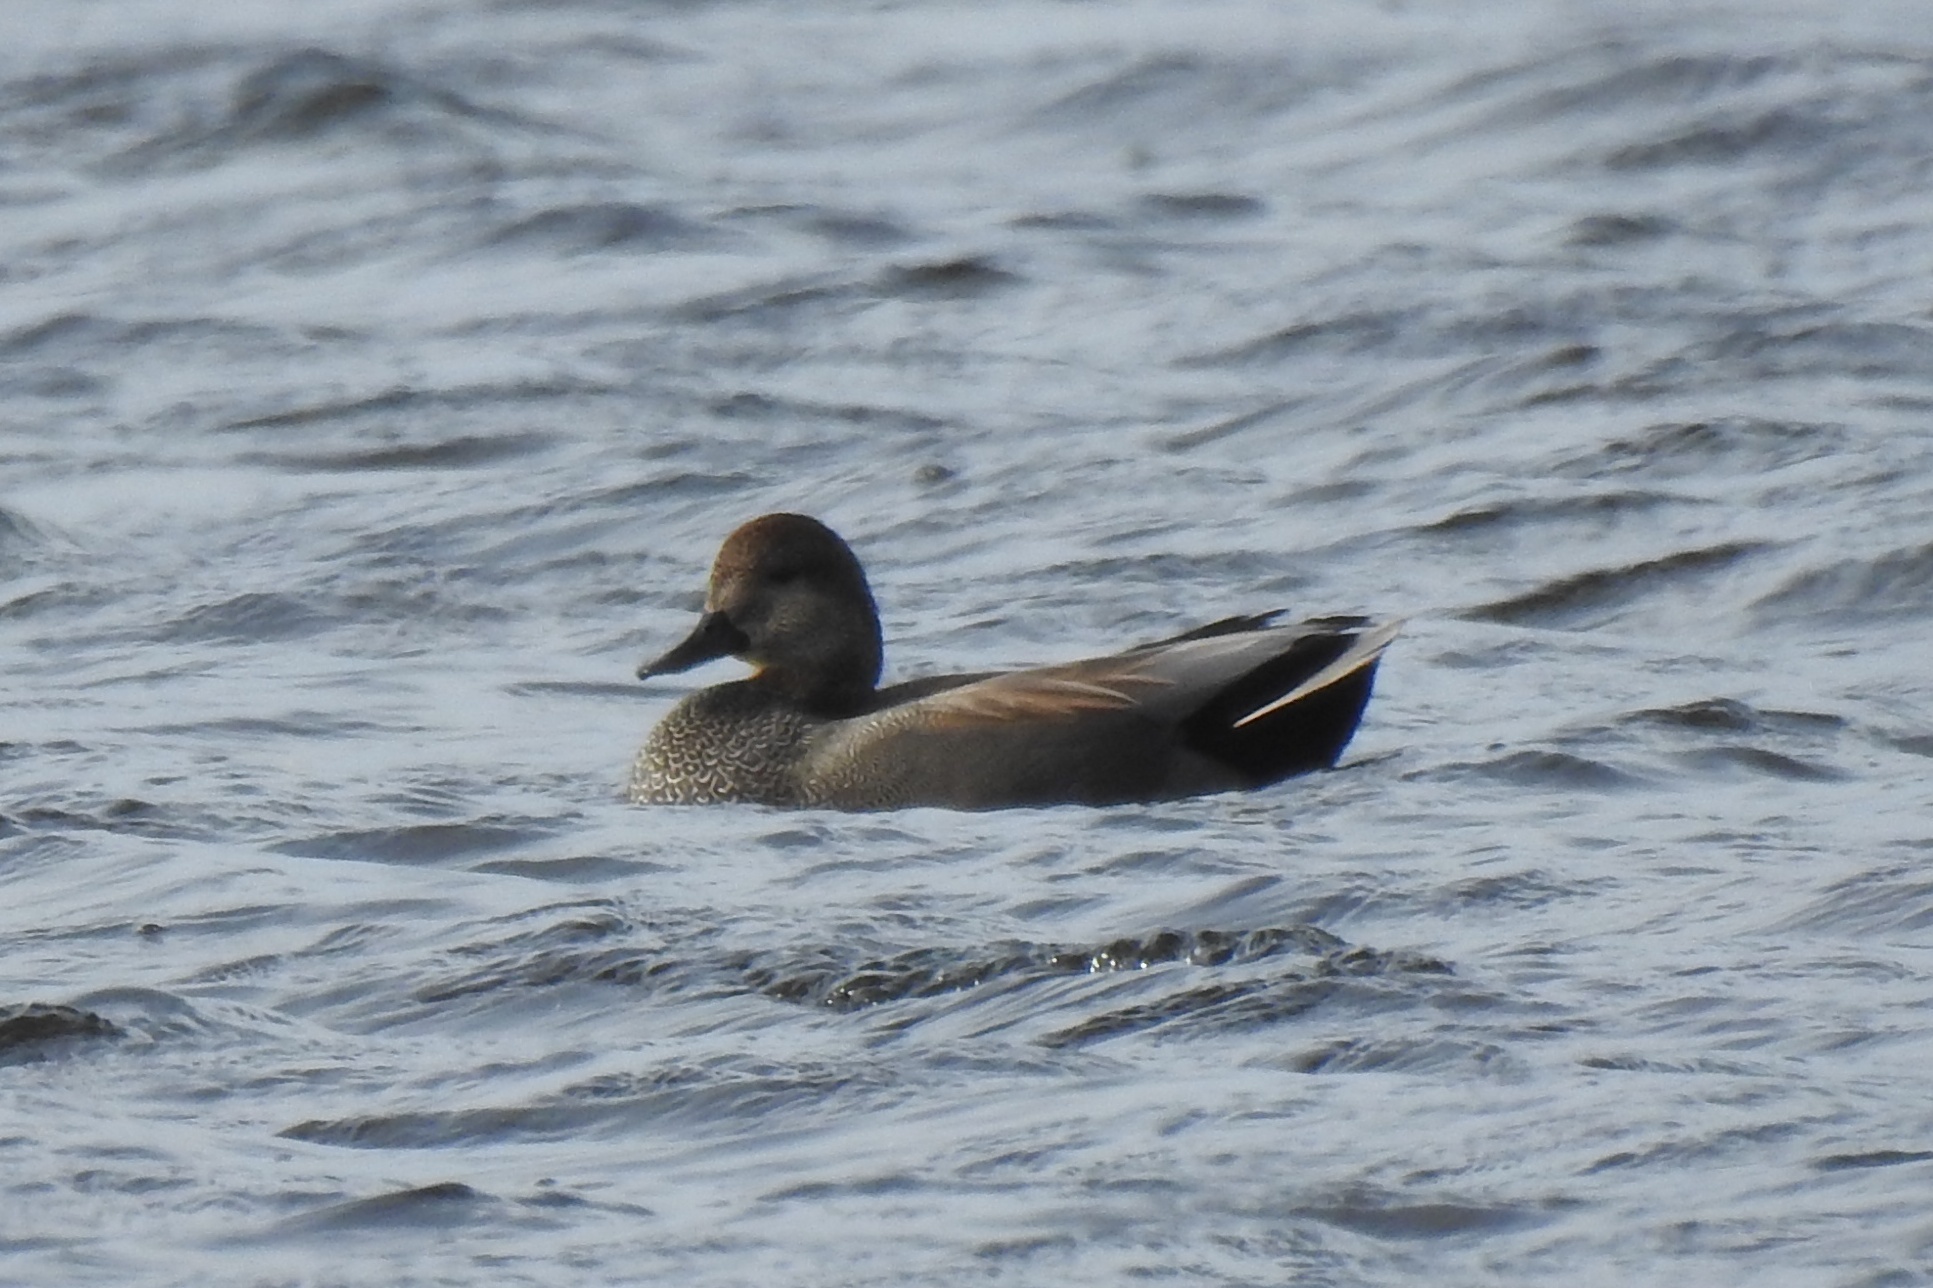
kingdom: Animalia
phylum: Chordata
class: Aves
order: Anseriformes
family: Anatidae
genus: Mareca
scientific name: Mareca strepera
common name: Gadwall
